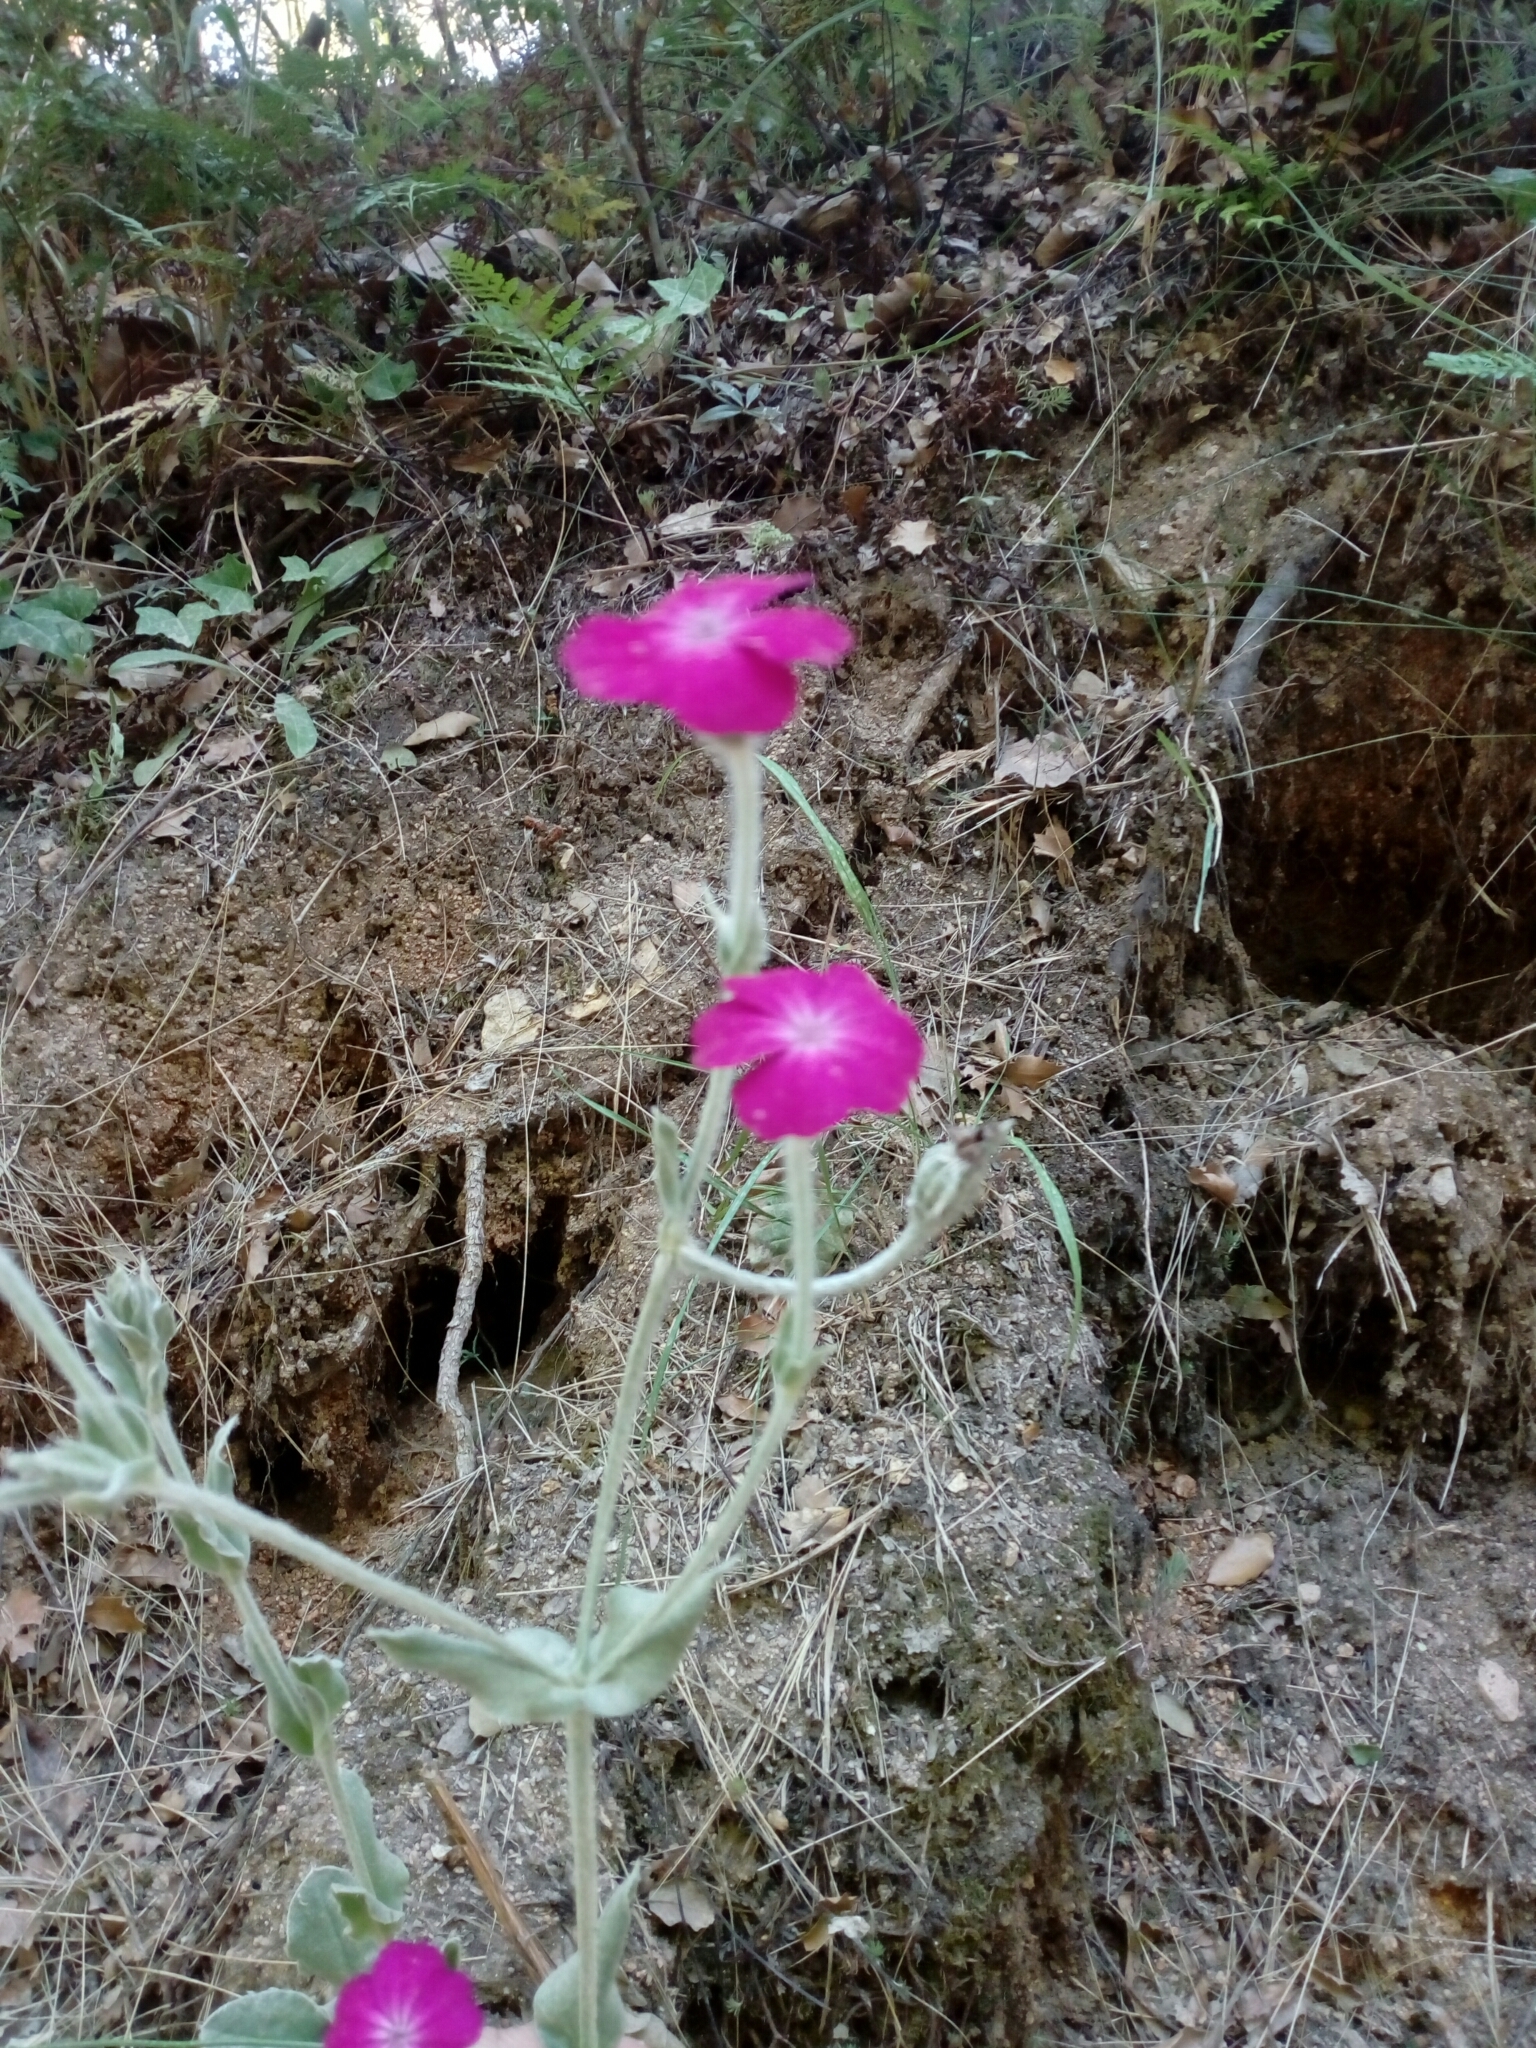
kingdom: Plantae
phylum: Tracheophyta
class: Magnoliopsida
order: Caryophyllales
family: Caryophyllaceae
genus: Silene
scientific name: Silene coronaria
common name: Rose campion
